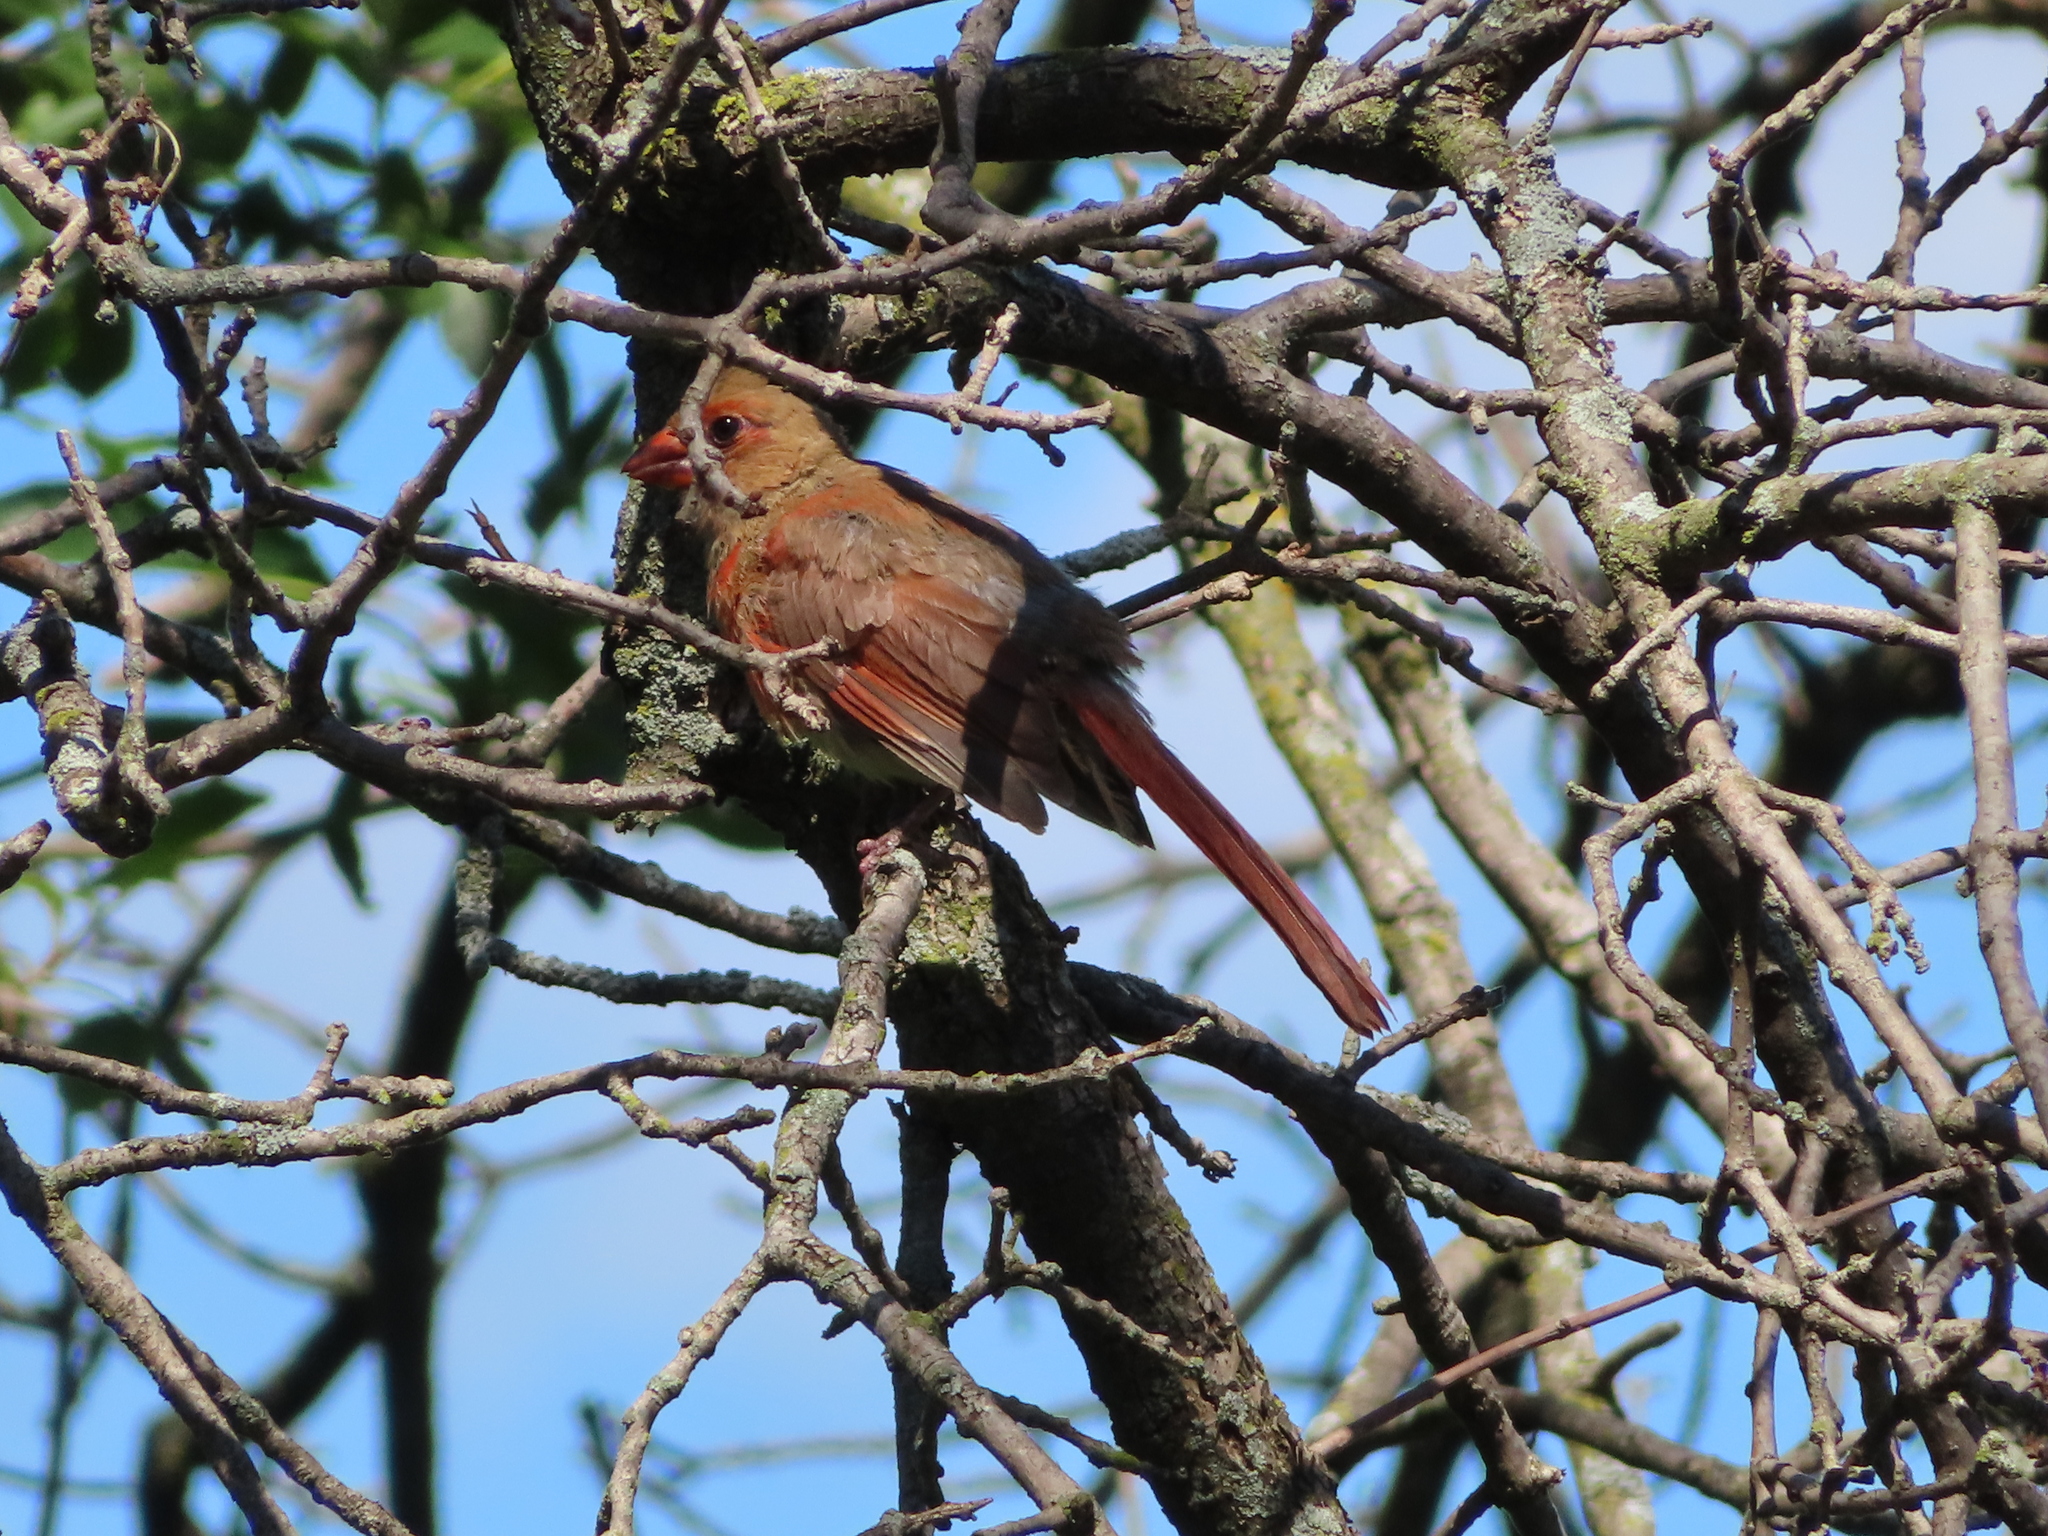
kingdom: Animalia
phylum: Chordata
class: Aves
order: Passeriformes
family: Cardinalidae
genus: Cardinalis
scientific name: Cardinalis cardinalis
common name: Northern cardinal
